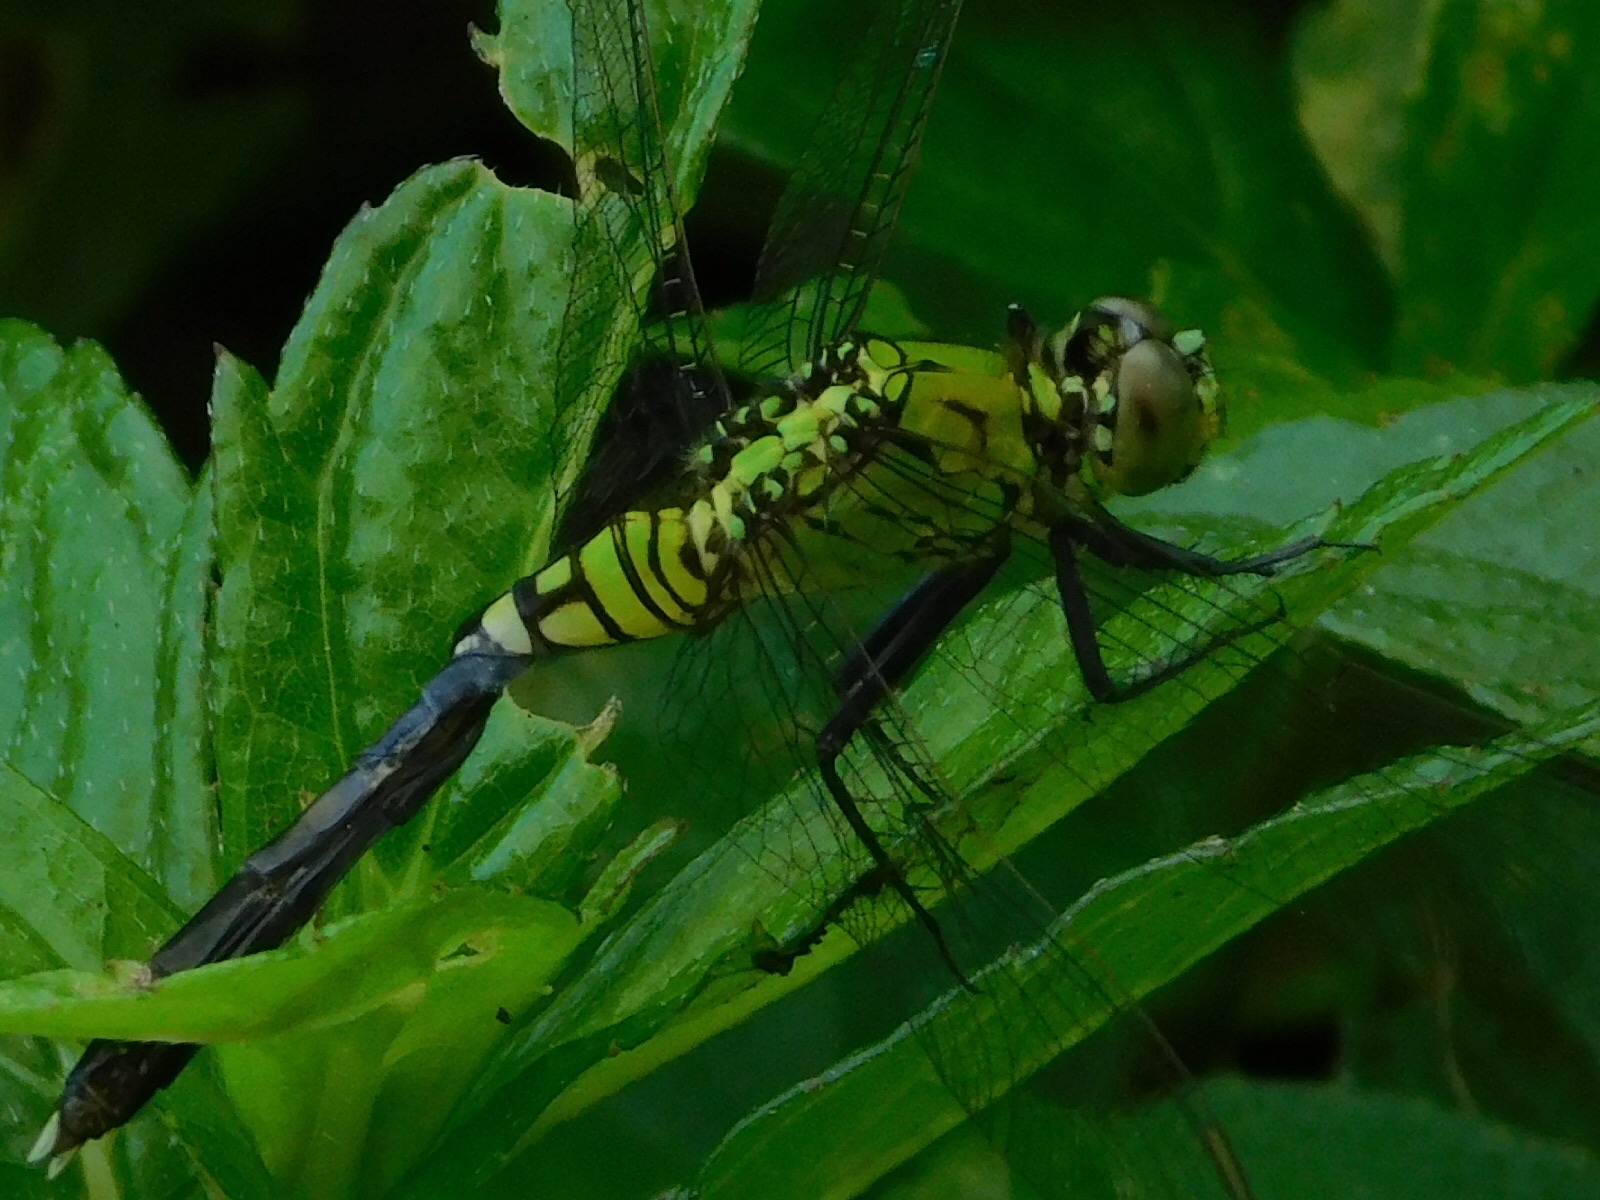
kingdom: Animalia
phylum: Arthropoda
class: Insecta
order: Odonata
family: Libellulidae
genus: Erythemis
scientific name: Erythemis simplicicollis
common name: Eastern pondhawk
